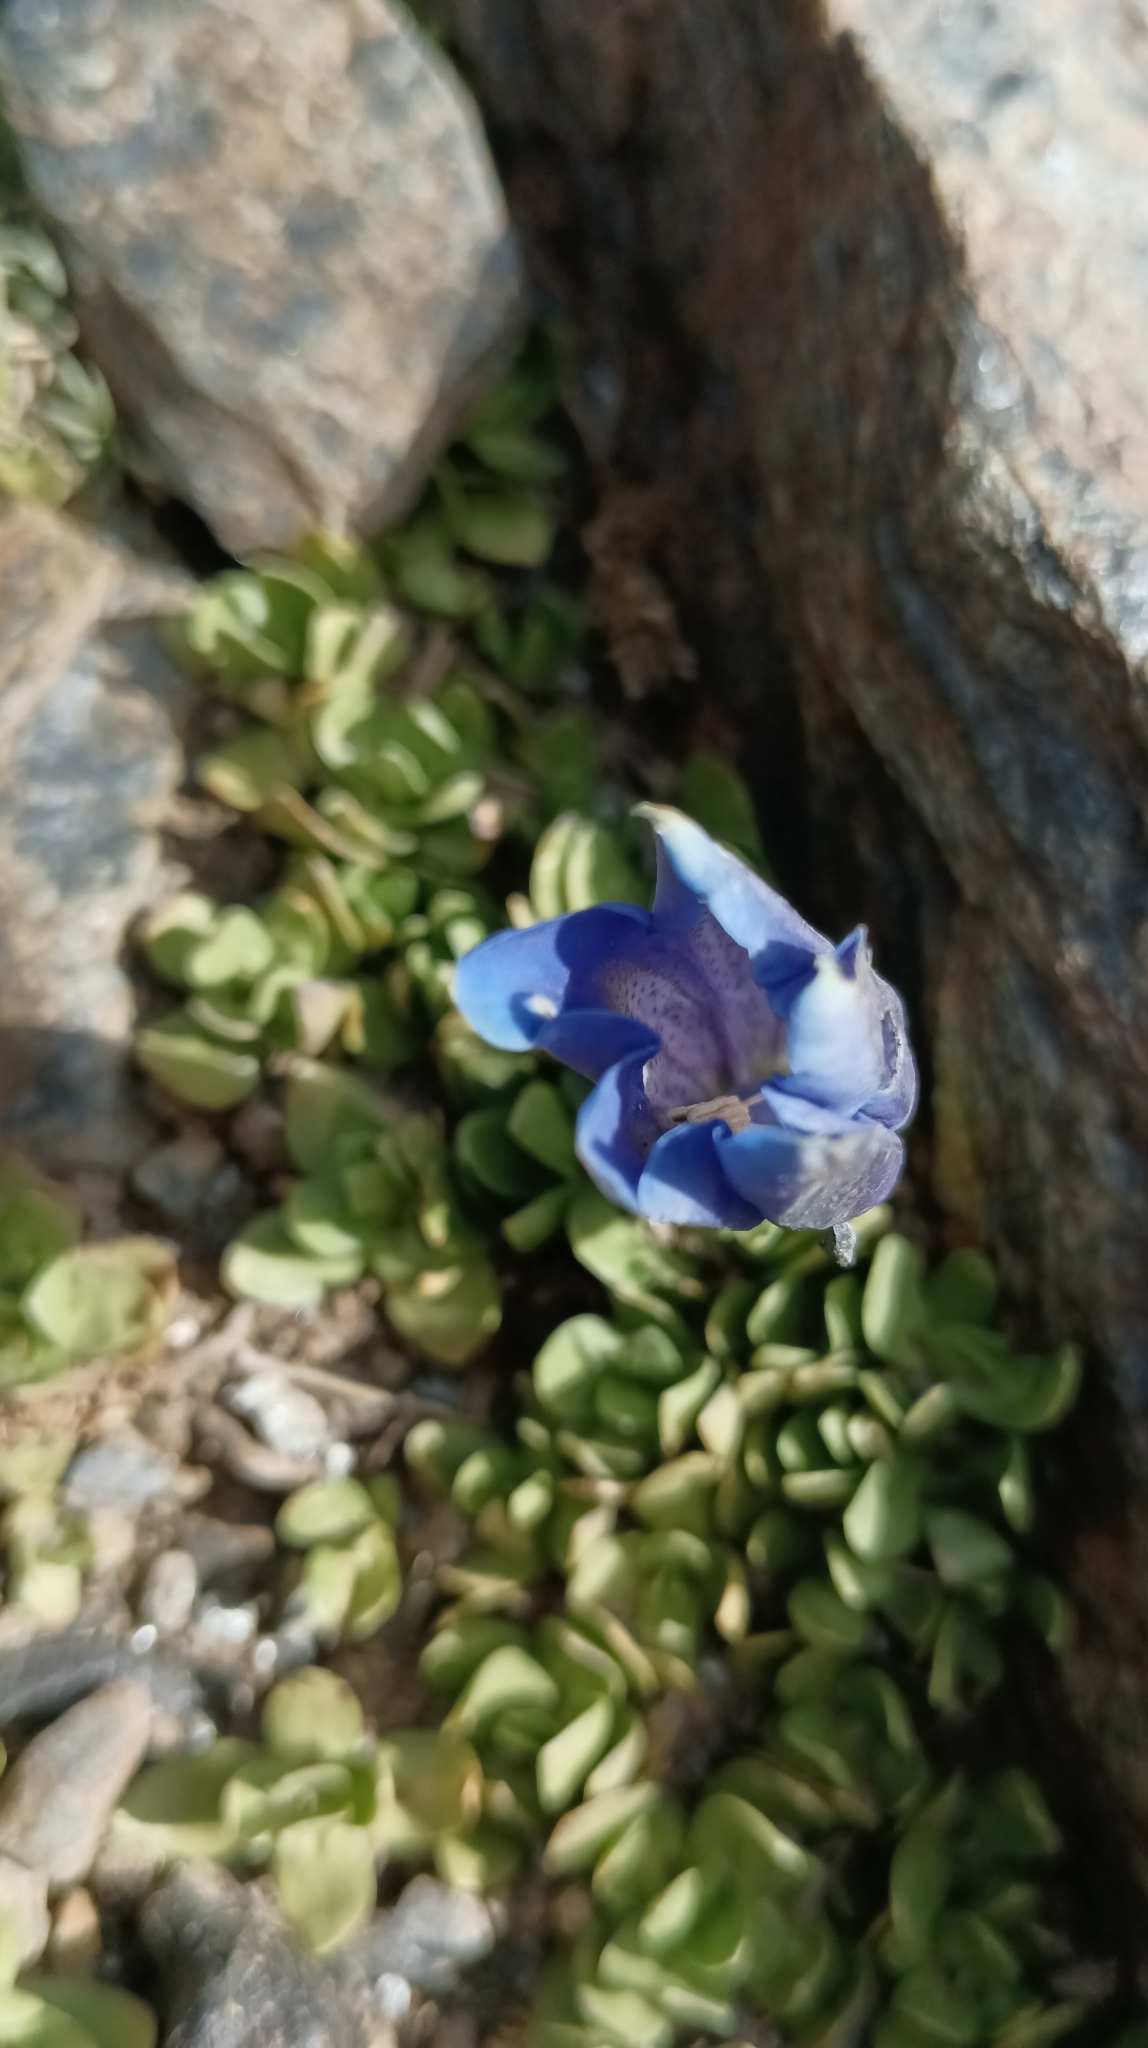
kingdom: Plantae
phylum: Tracheophyta
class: Magnoliopsida
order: Gentianales
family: Gentianaceae
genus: Gentiana
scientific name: Gentiana alpina
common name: Southern gentian
